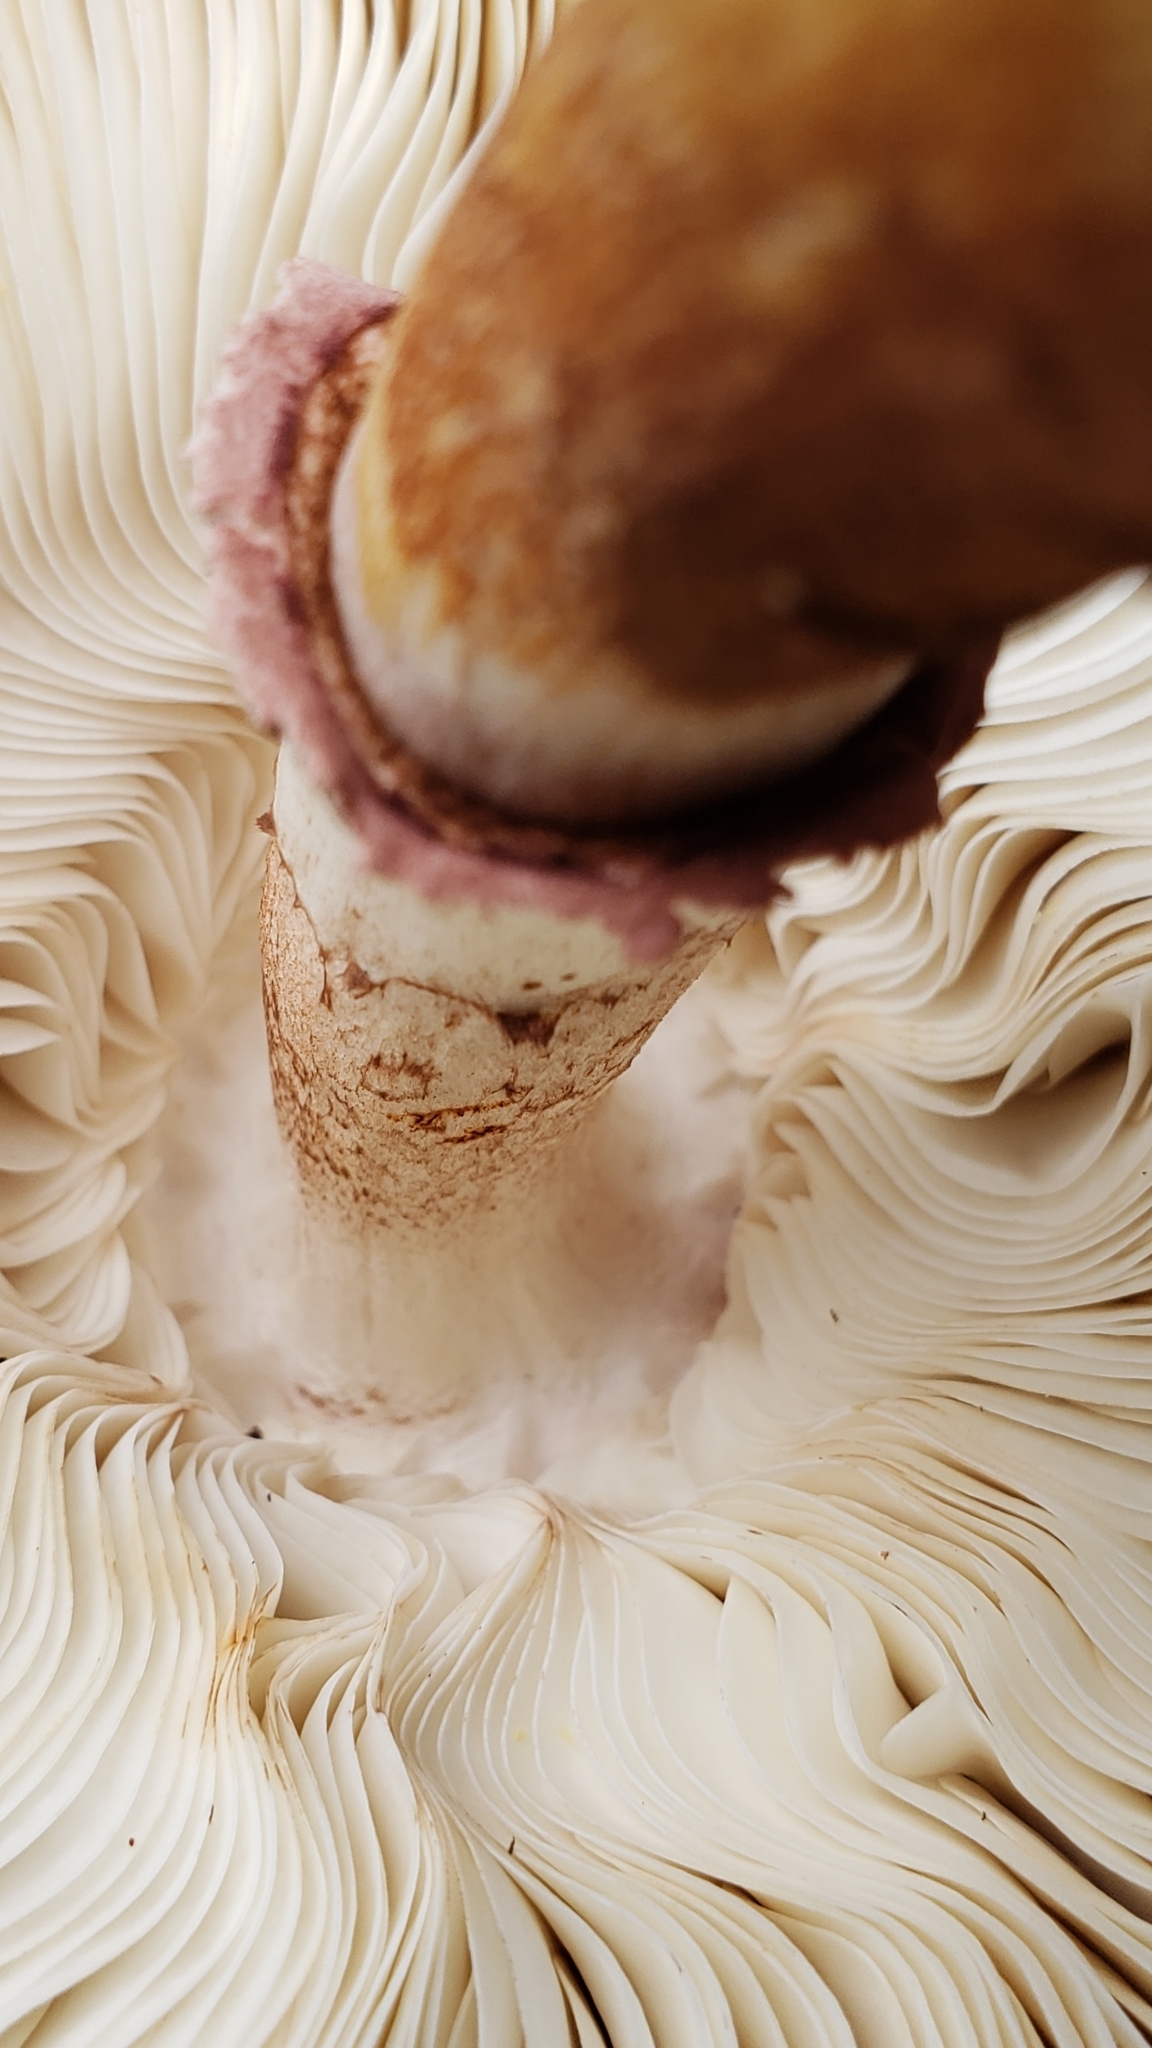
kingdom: Fungi
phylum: Basidiomycota
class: Agaricomycetes
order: Agaricales
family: Agaricaceae
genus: Leucoagaricus
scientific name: Leucoagaricus americanus
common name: Reddening lepiota
